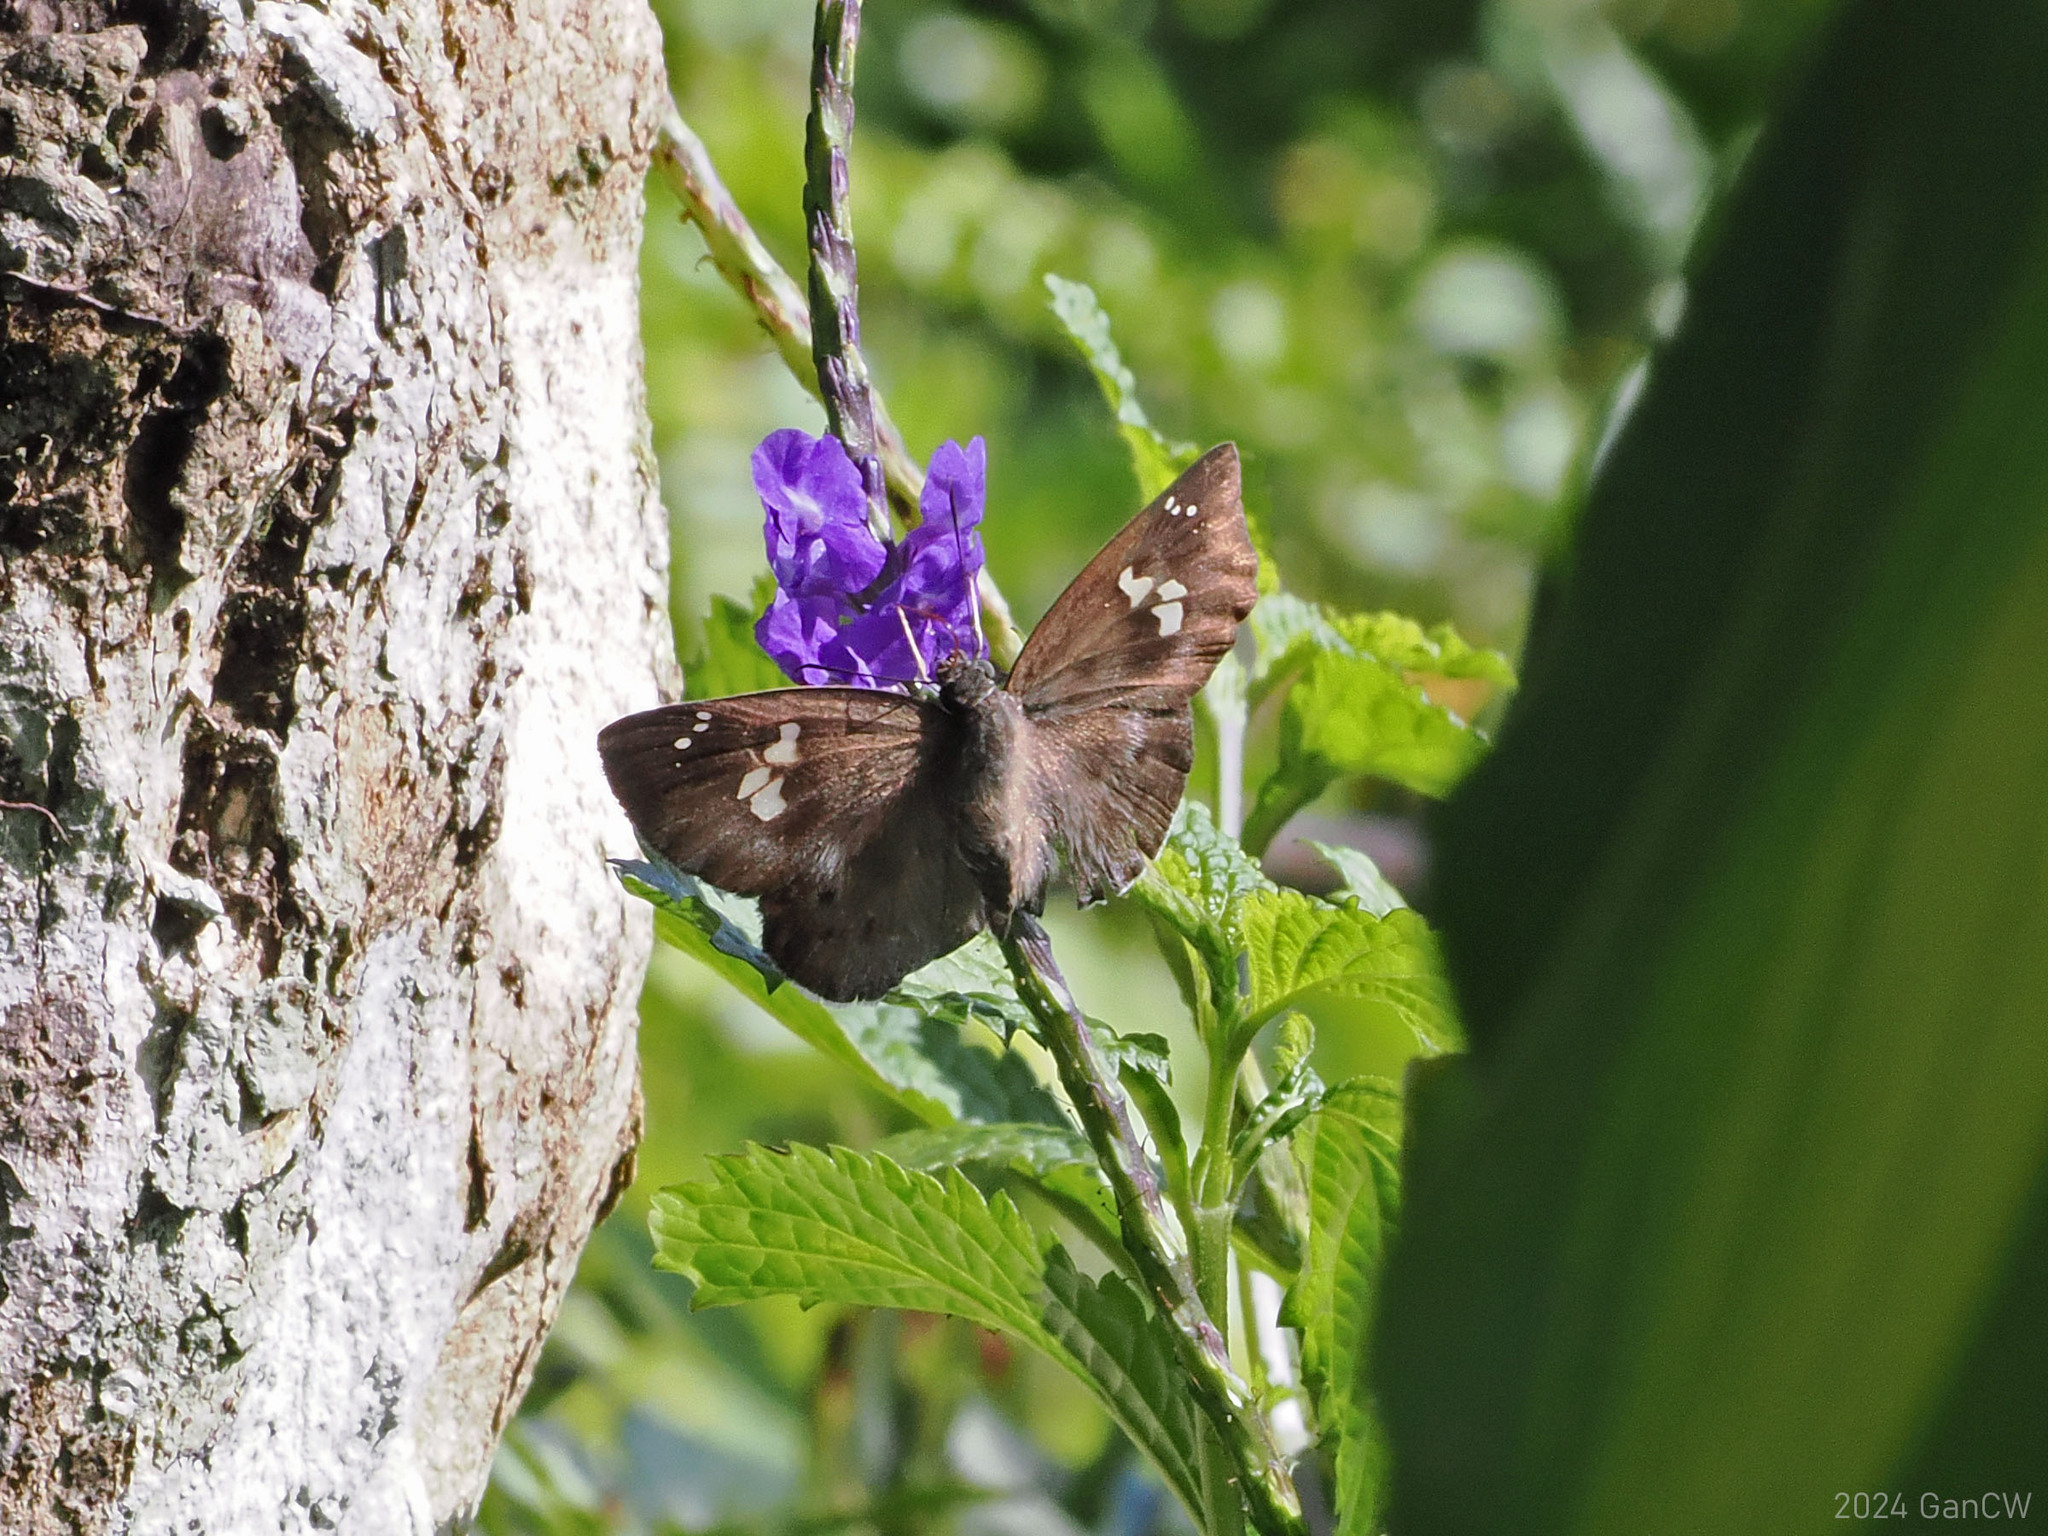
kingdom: Animalia
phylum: Arthropoda
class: Insecta
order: Lepidoptera
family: Hesperiidae
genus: Tagiades
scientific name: Tagiades japetus
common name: Pied flat
